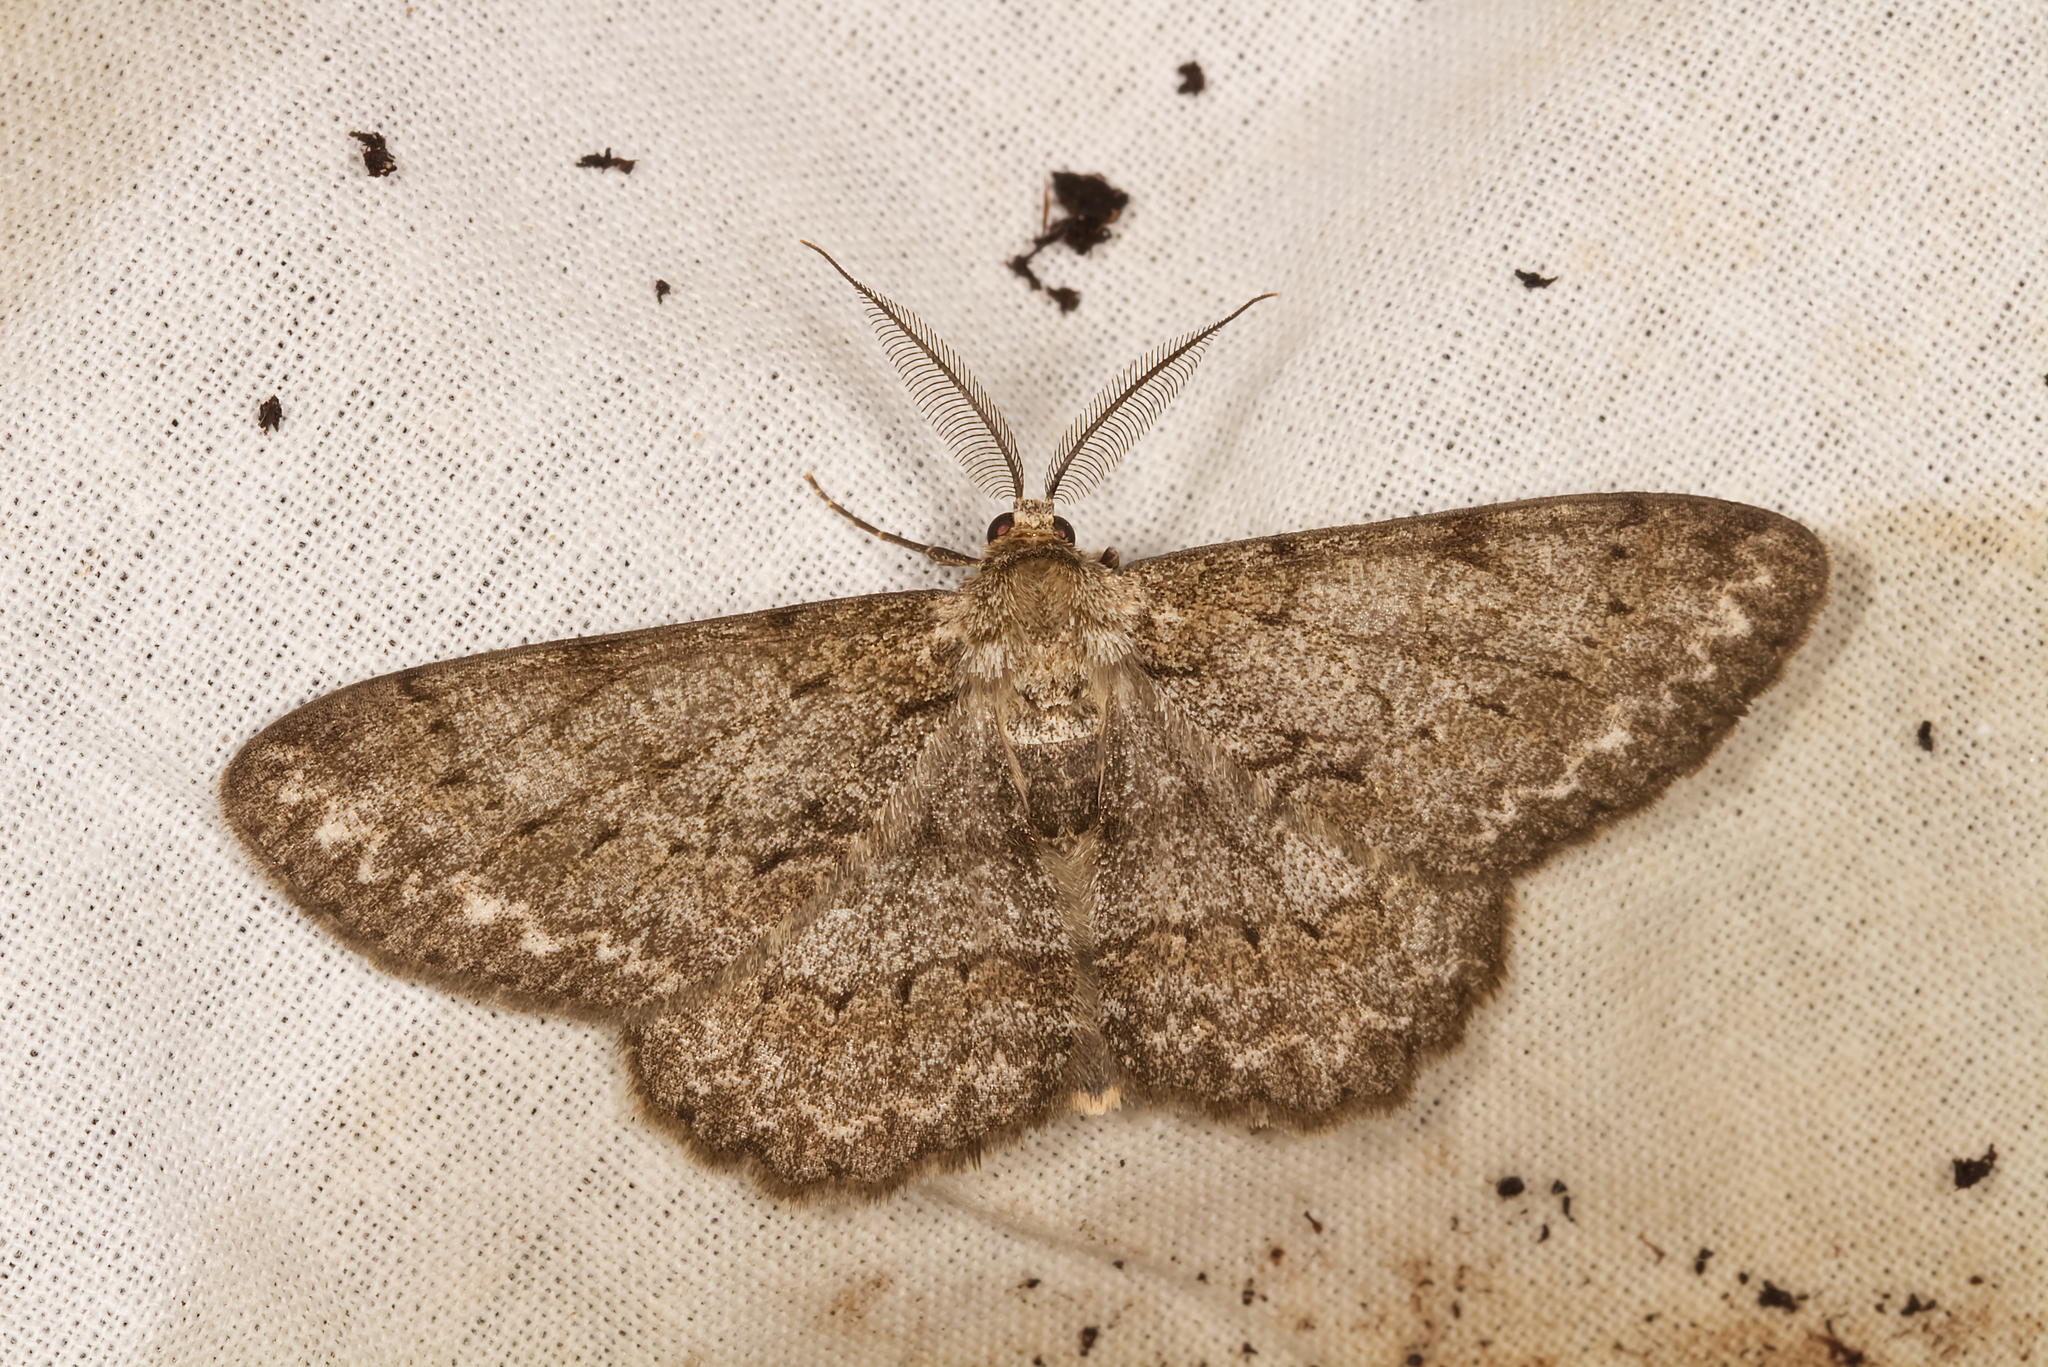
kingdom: Animalia
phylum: Arthropoda
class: Insecta
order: Lepidoptera
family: Geometridae
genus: Hypomecis
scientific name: Hypomecis punctinalis
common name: Pale oak beauty
